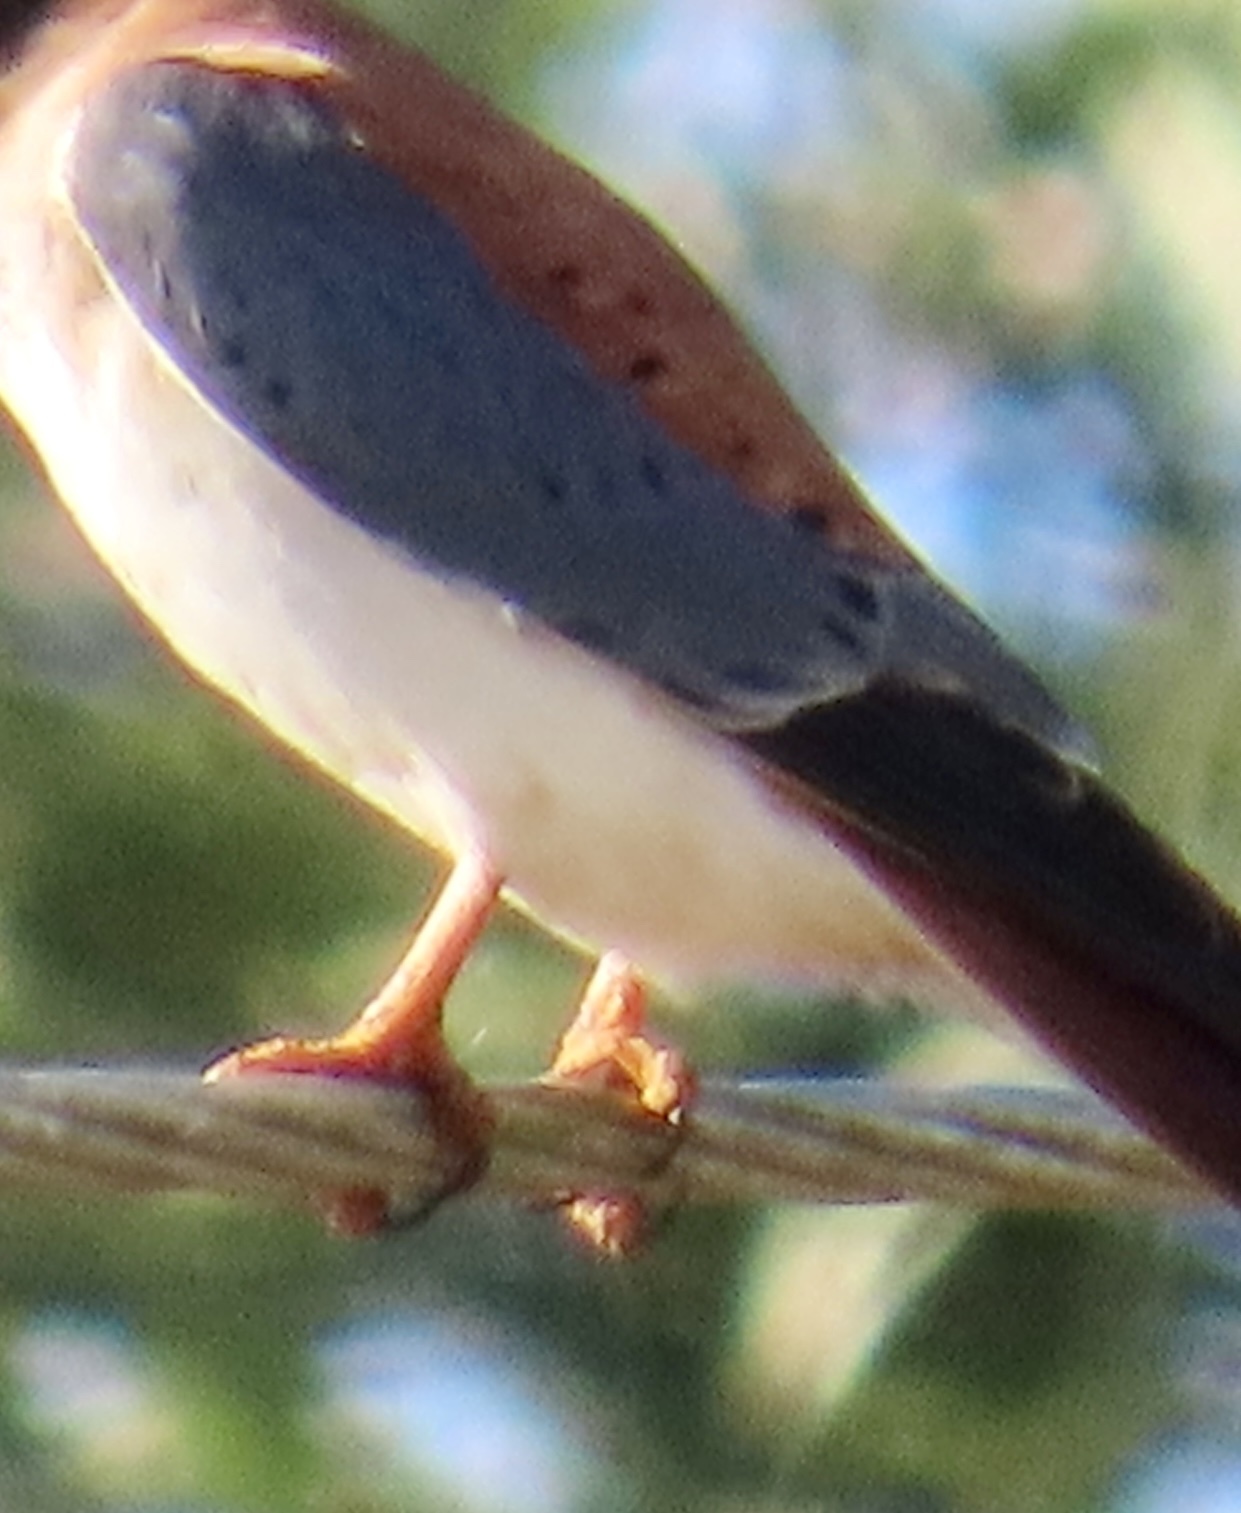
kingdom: Animalia
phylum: Chordata
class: Aves
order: Falconiformes
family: Falconidae
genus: Falco
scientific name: Falco sparverius
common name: American kestrel
